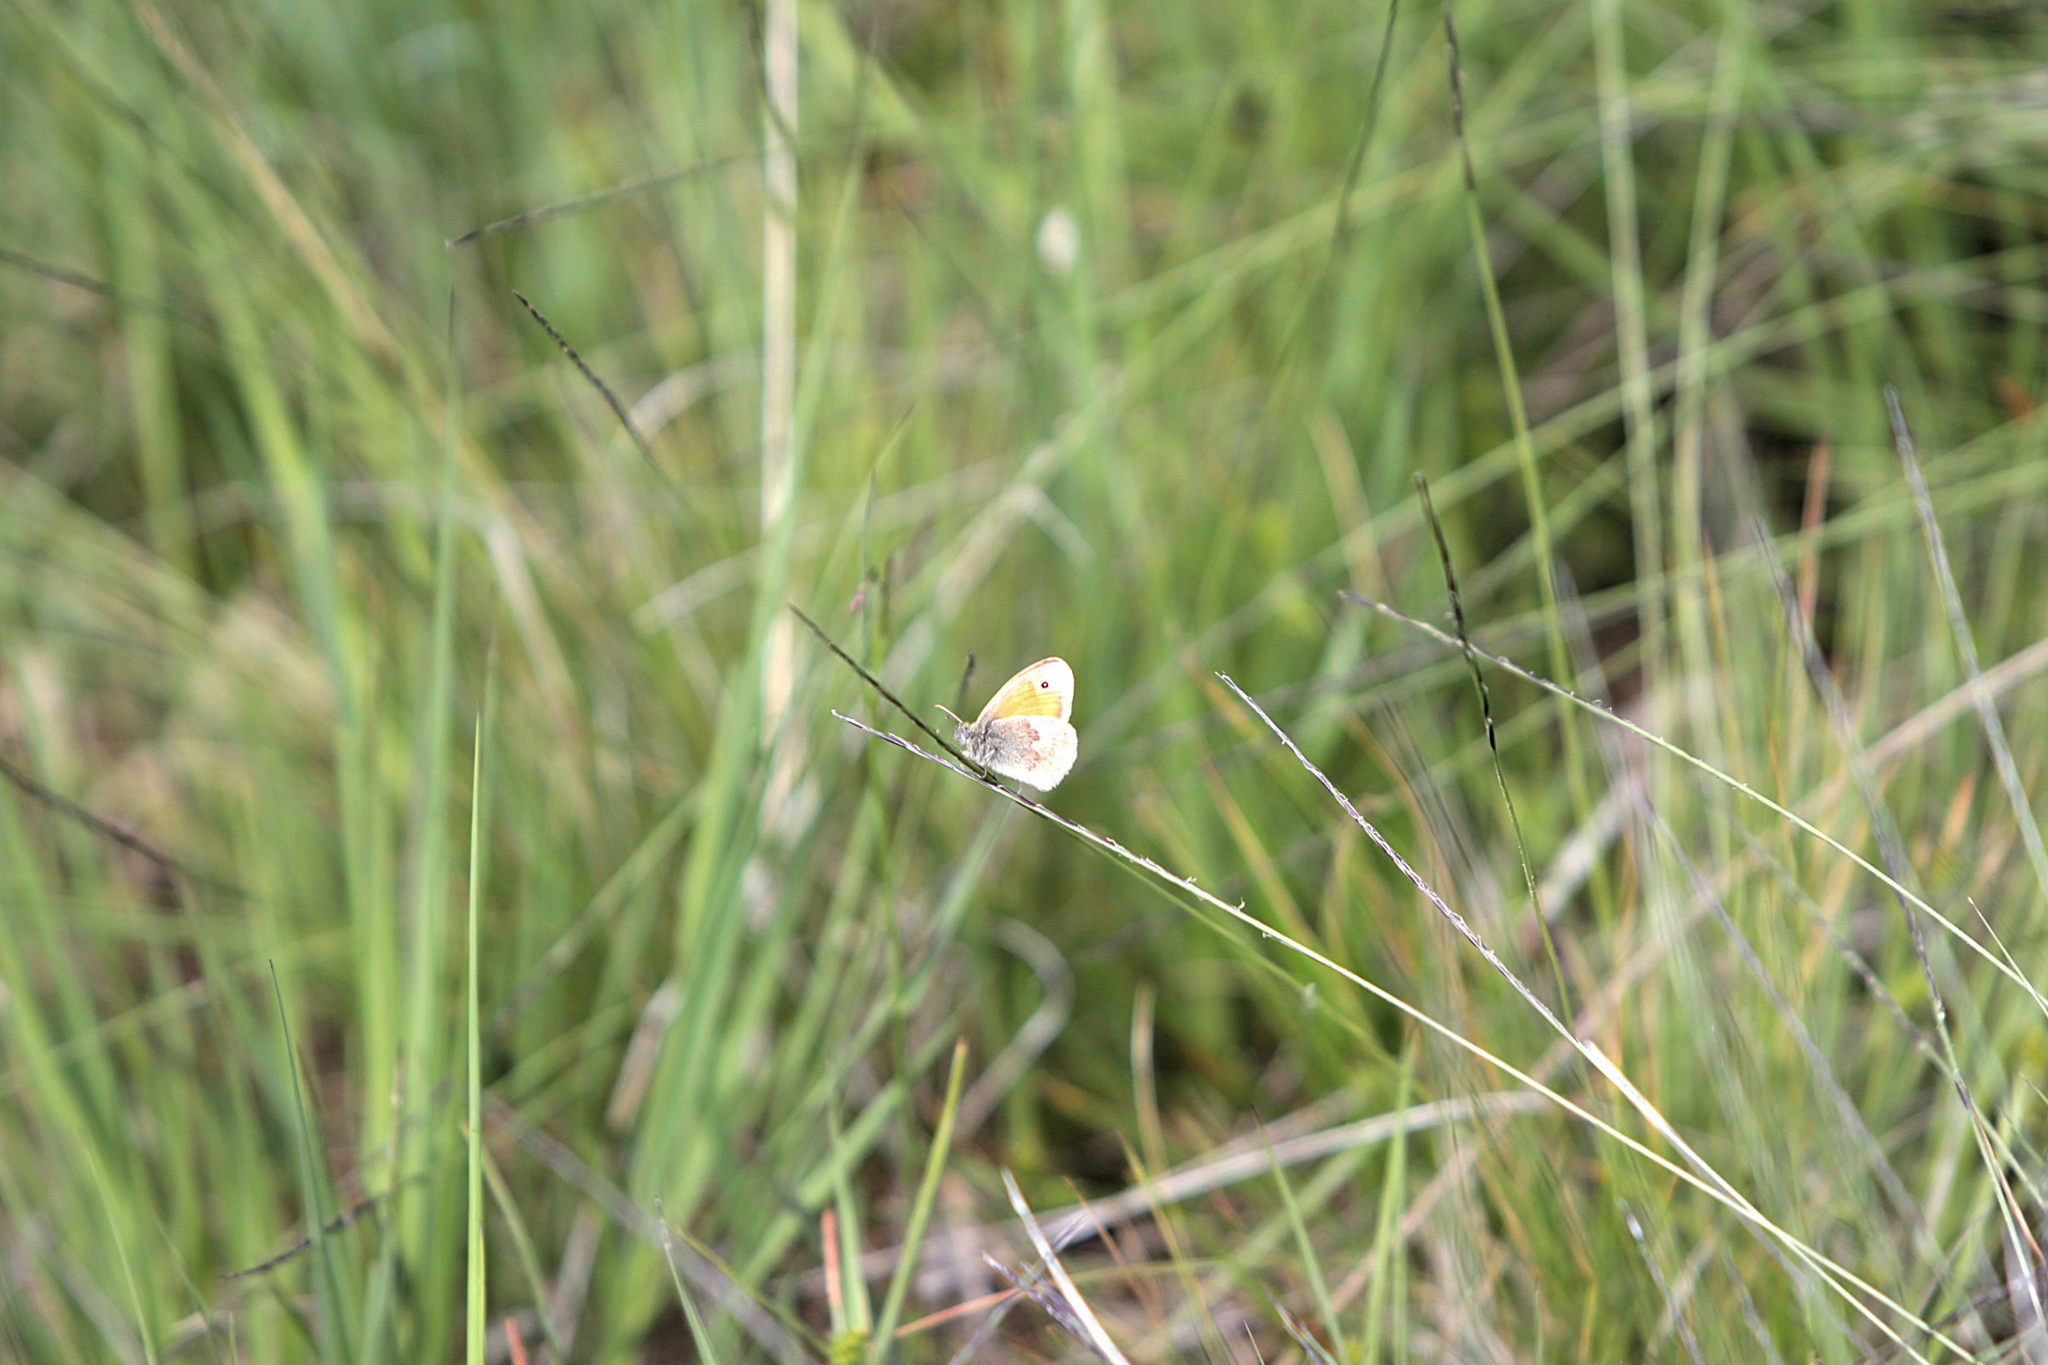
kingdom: Animalia
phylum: Arthropoda
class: Insecta
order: Lepidoptera
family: Nymphalidae
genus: Coenonympha
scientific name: Coenonympha pamphilus
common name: Small heath
